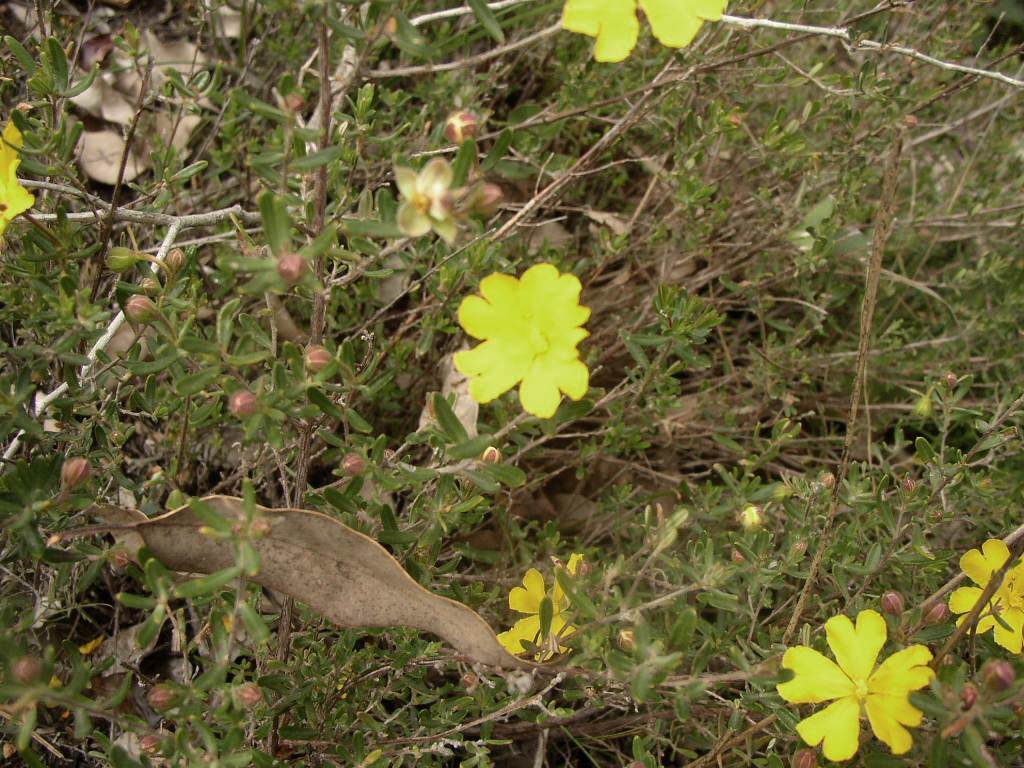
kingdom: Plantae
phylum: Tracheophyta
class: Magnoliopsida
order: Dilleniales
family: Dilleniaceae
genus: Hibbertia
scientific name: Hibbertia hypericoides
